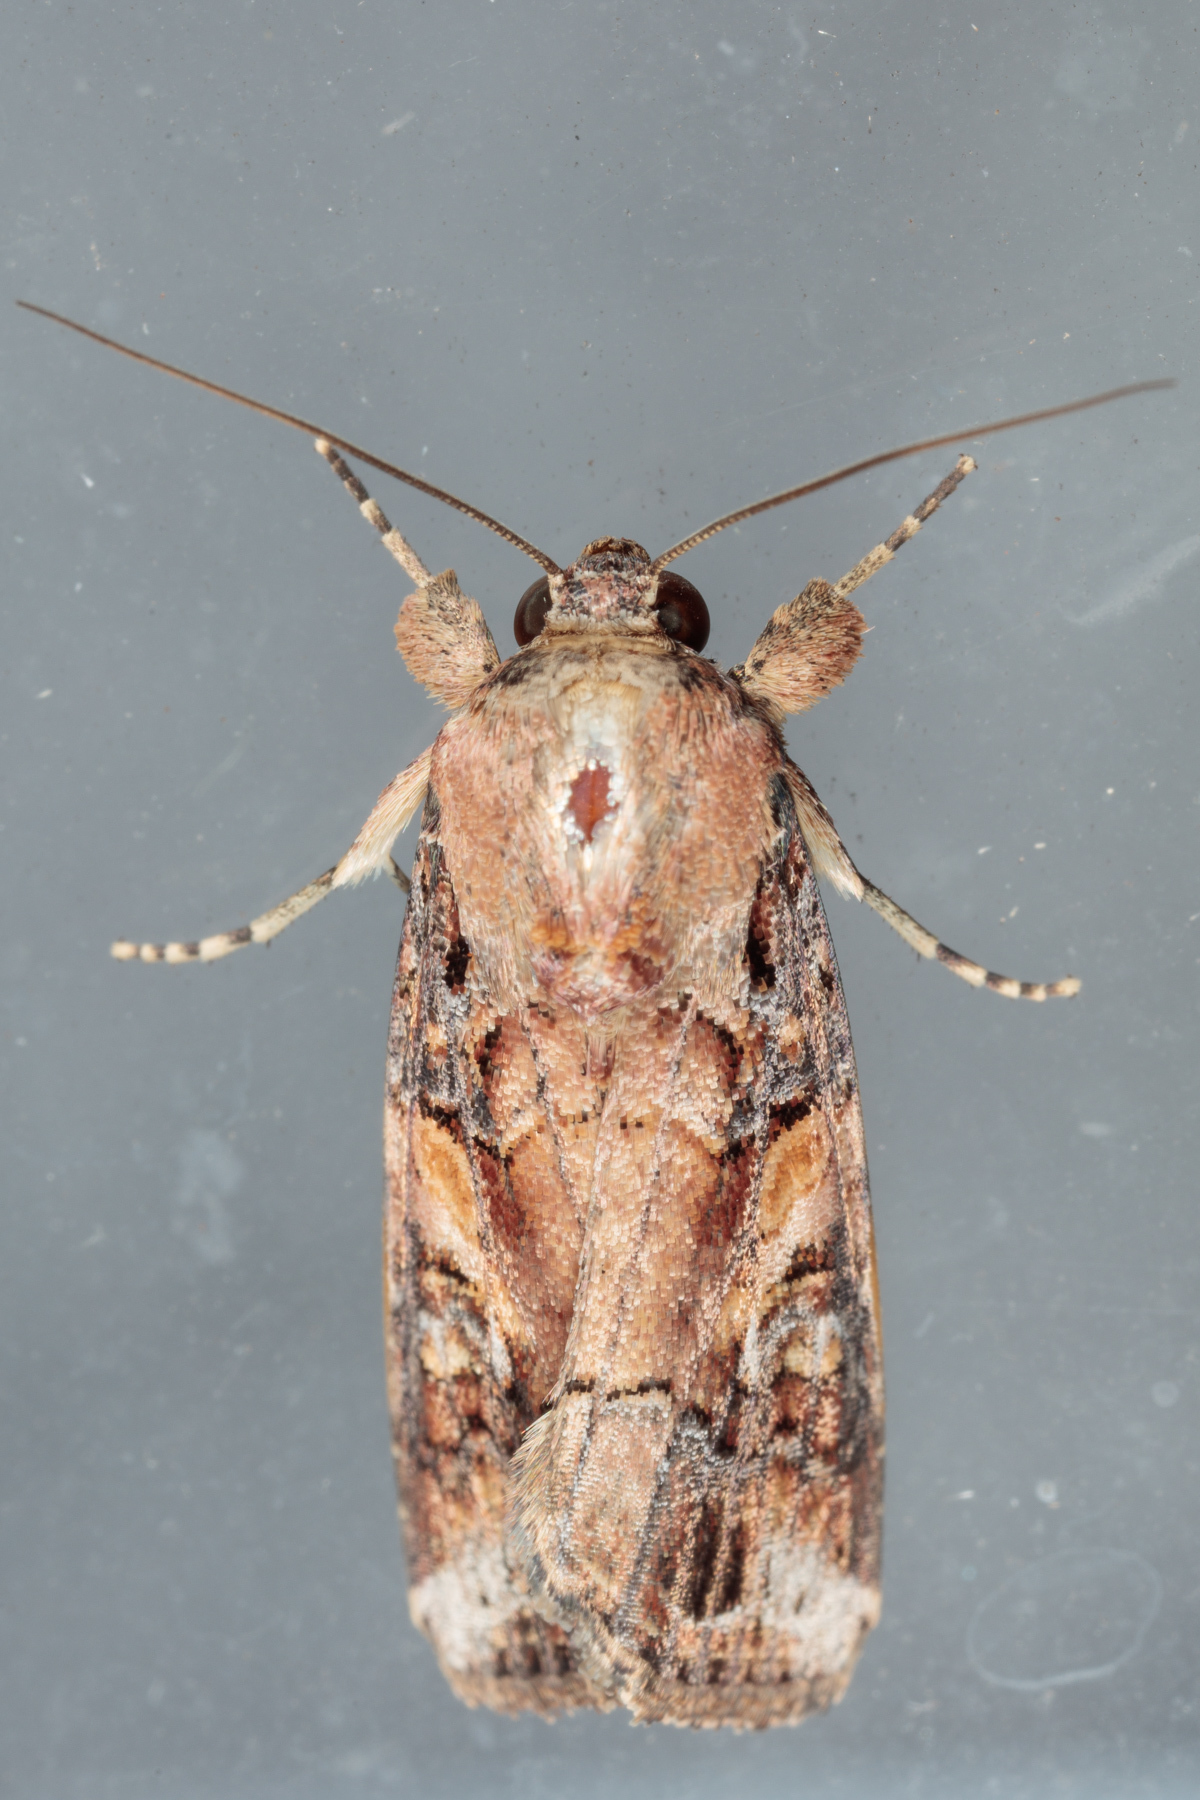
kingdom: Animalia
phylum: Arthropoda
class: Insecta
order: Lepidoptera
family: Noctuidae
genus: Spodoptera
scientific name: Spodoptera frugiperda
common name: Fall armyworm
